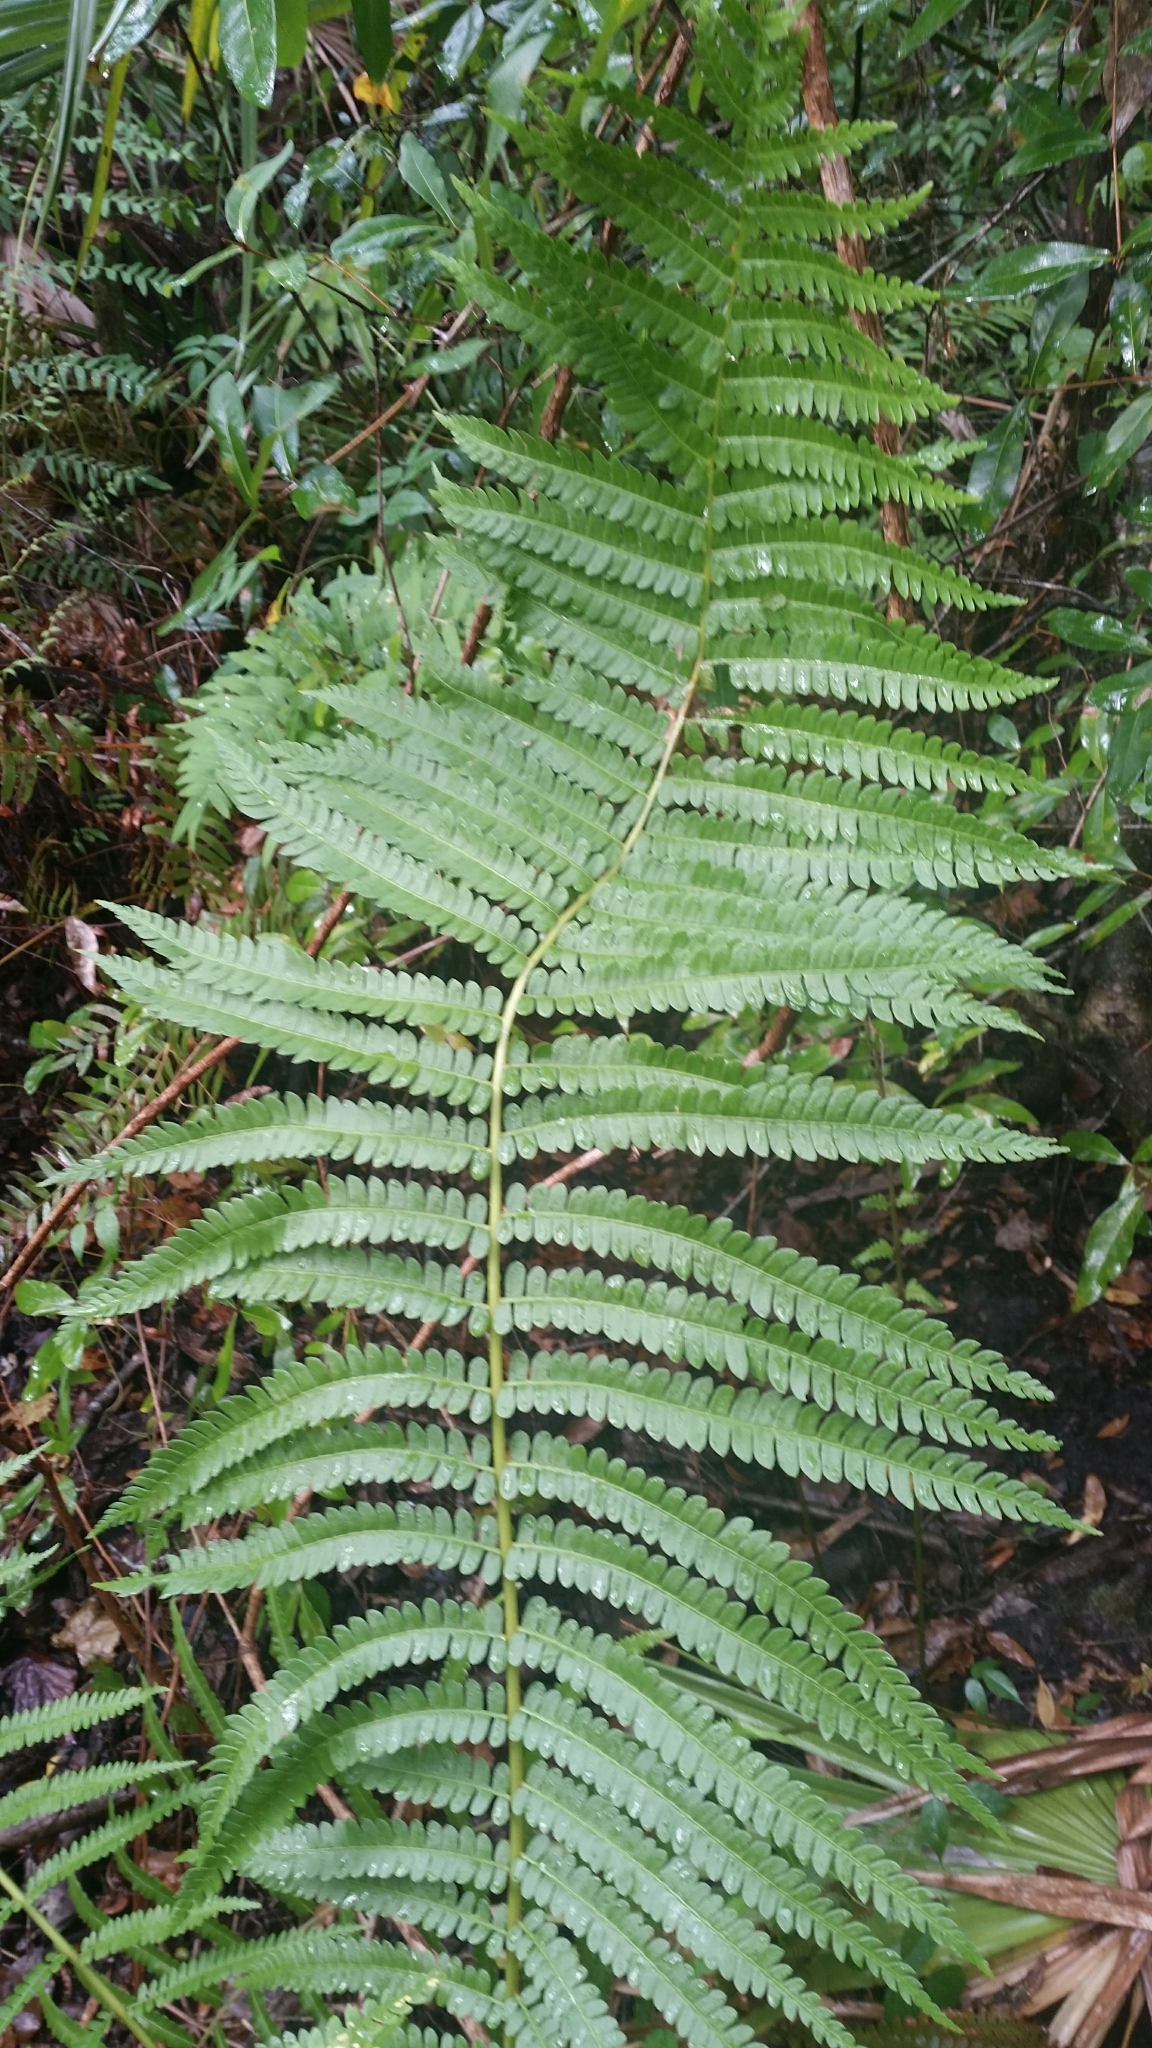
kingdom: Plantae
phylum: Tracheophyta
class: Polypodiopsida
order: Osmundales
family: Osmundaceae
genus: Osmundastrum
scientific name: Osmundastrum cinnamomeum
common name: Cinnamon fern
